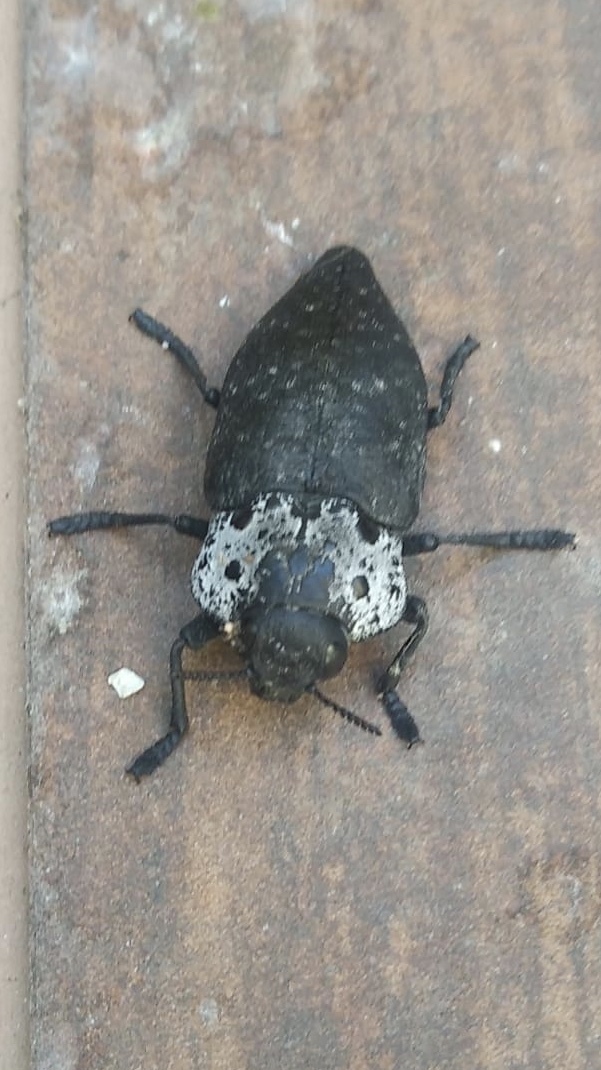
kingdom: Animalia
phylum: Arthropoda
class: Insecta
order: Coleoptera
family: Buprestidae
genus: Capnodis
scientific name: Capnodis tenebrionis
